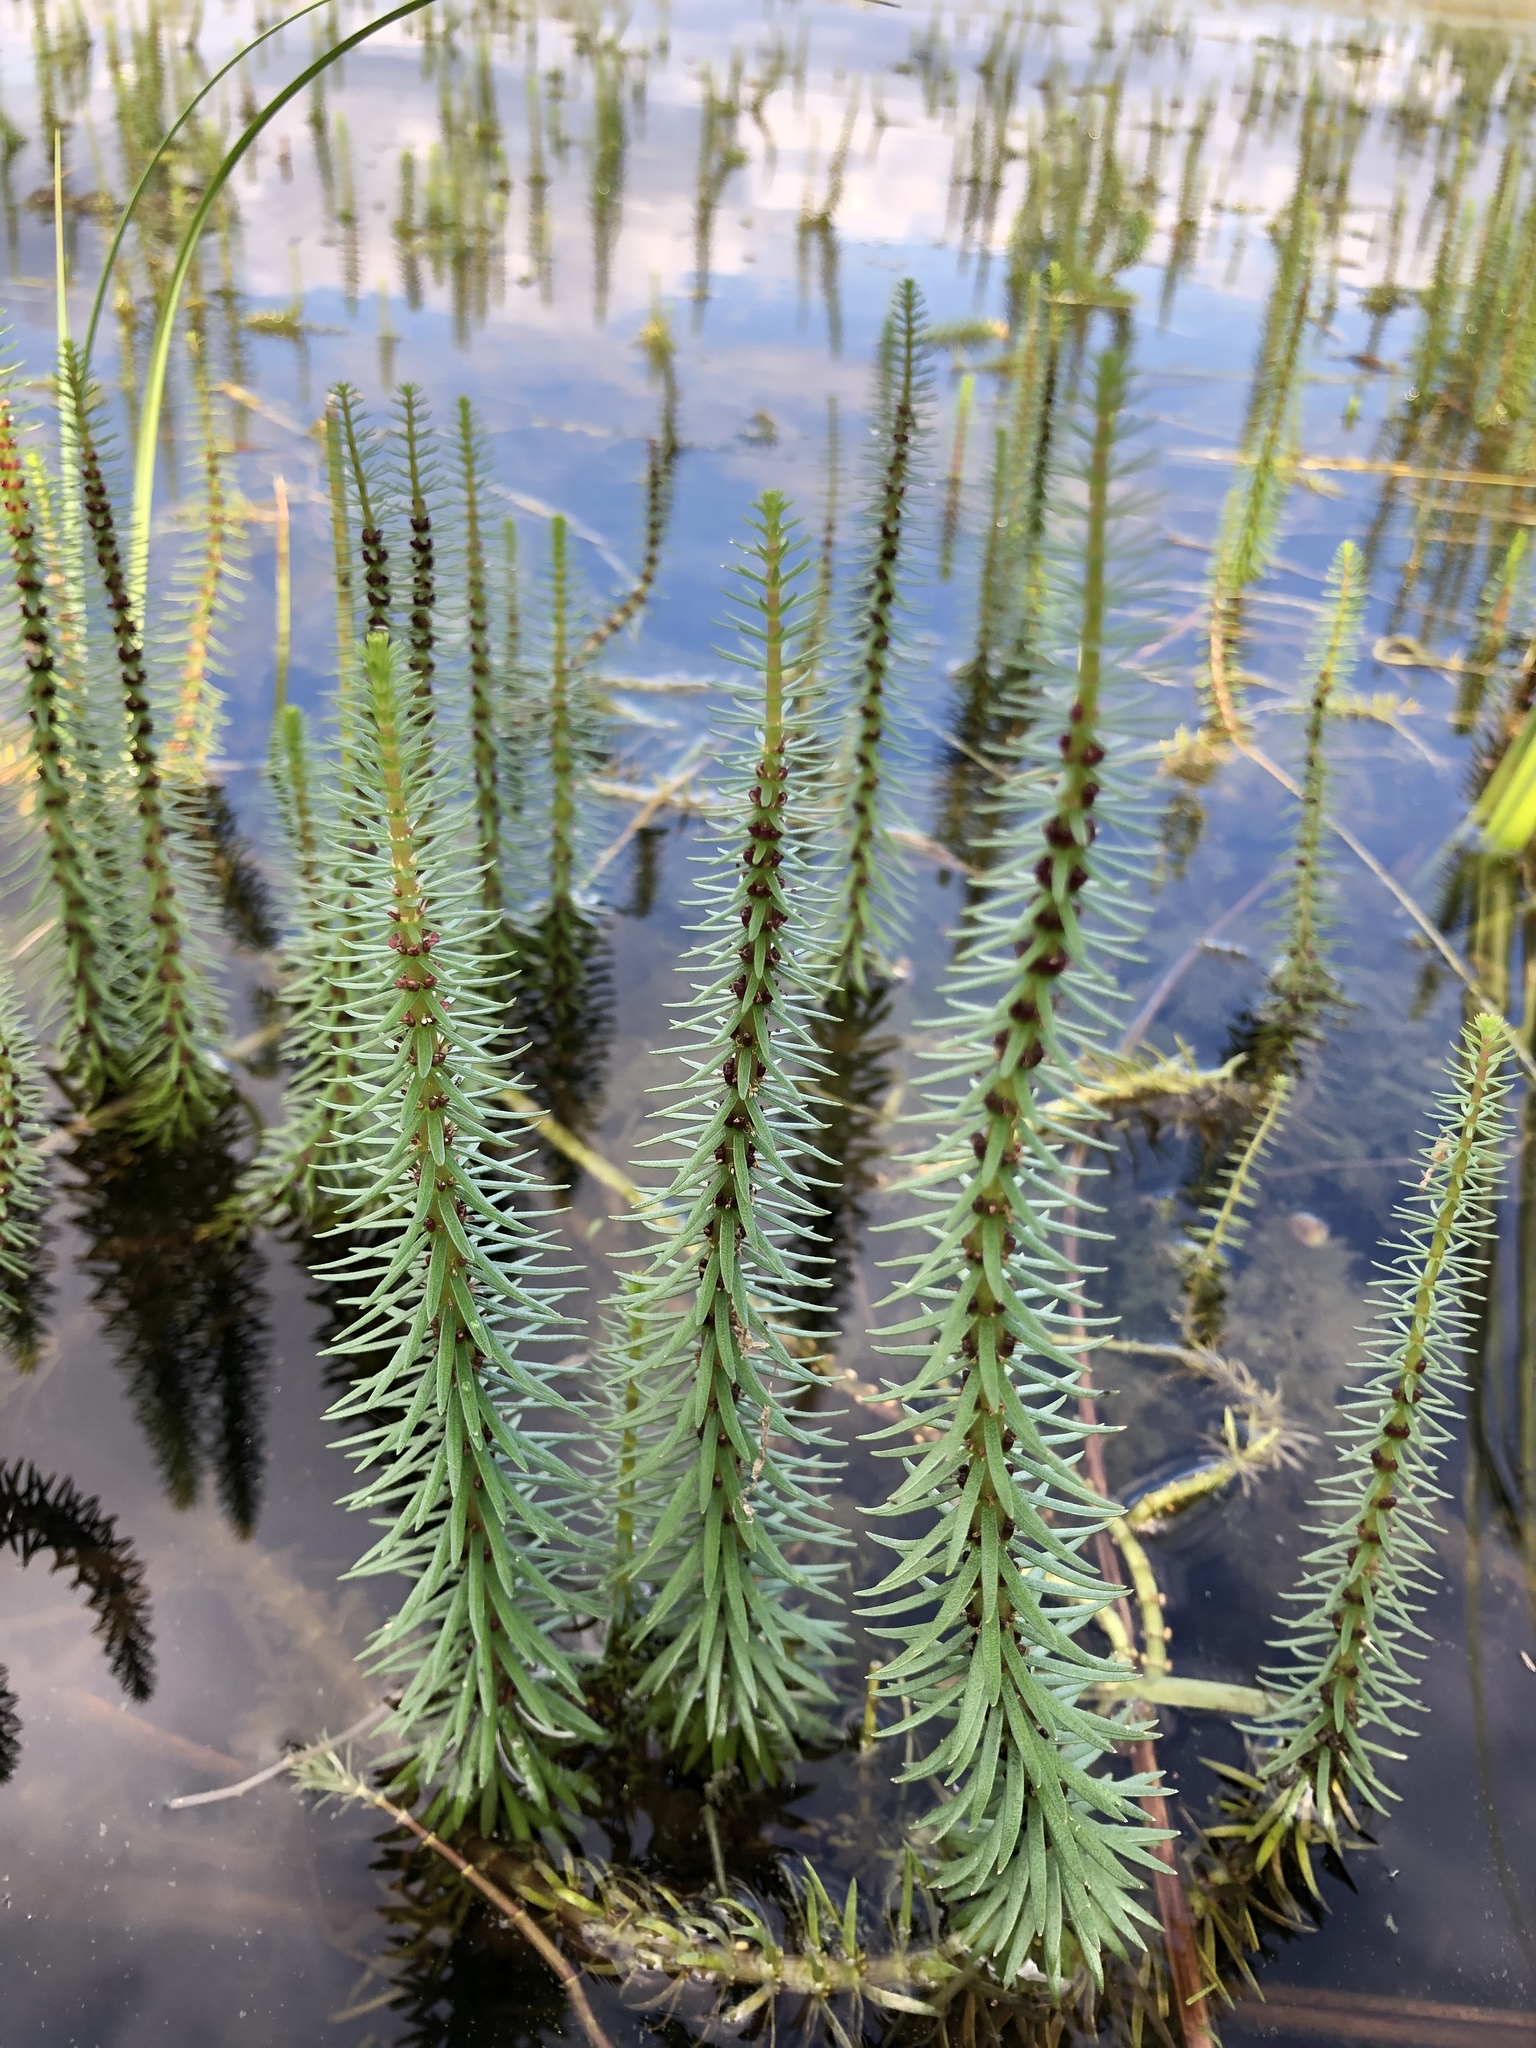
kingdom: Plantae
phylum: Tracheophyta
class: Magnoliopsida
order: Lamiales
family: Plantaginaceae
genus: Hippuris
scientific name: Hippuris vulgaris
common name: Mare's-tail
